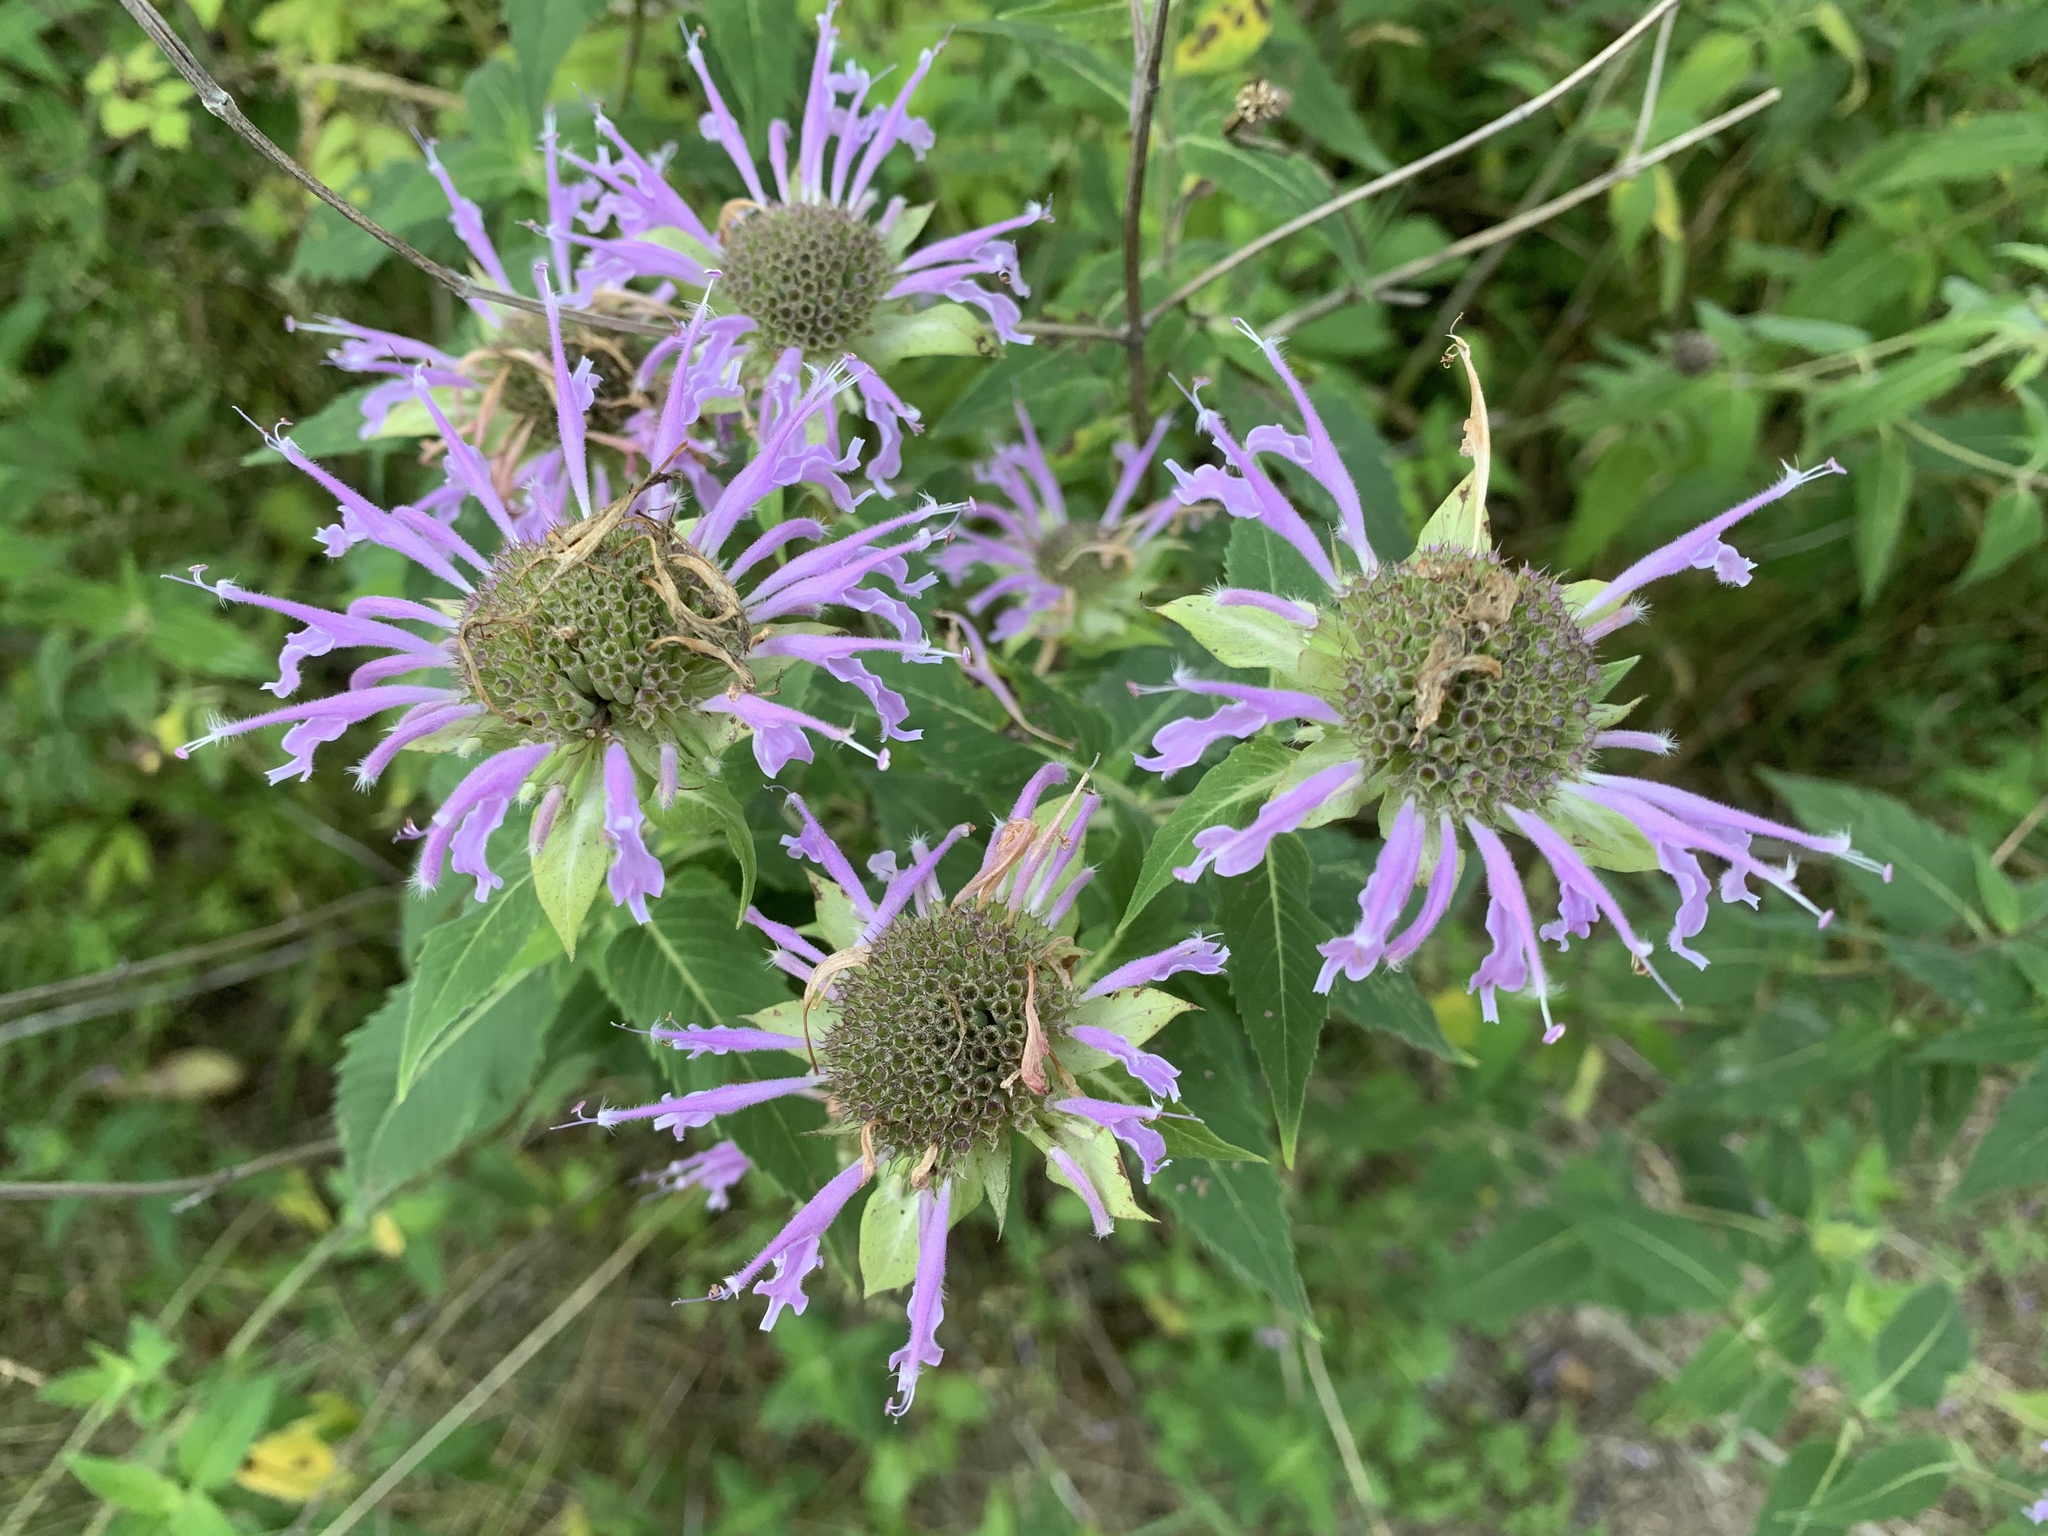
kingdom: Plantae
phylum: Tracheophyta
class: Magnoliopsida
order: Lamiales
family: Lamiaceae
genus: Monarda
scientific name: Monarda fistulosa
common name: Purple beebalm
